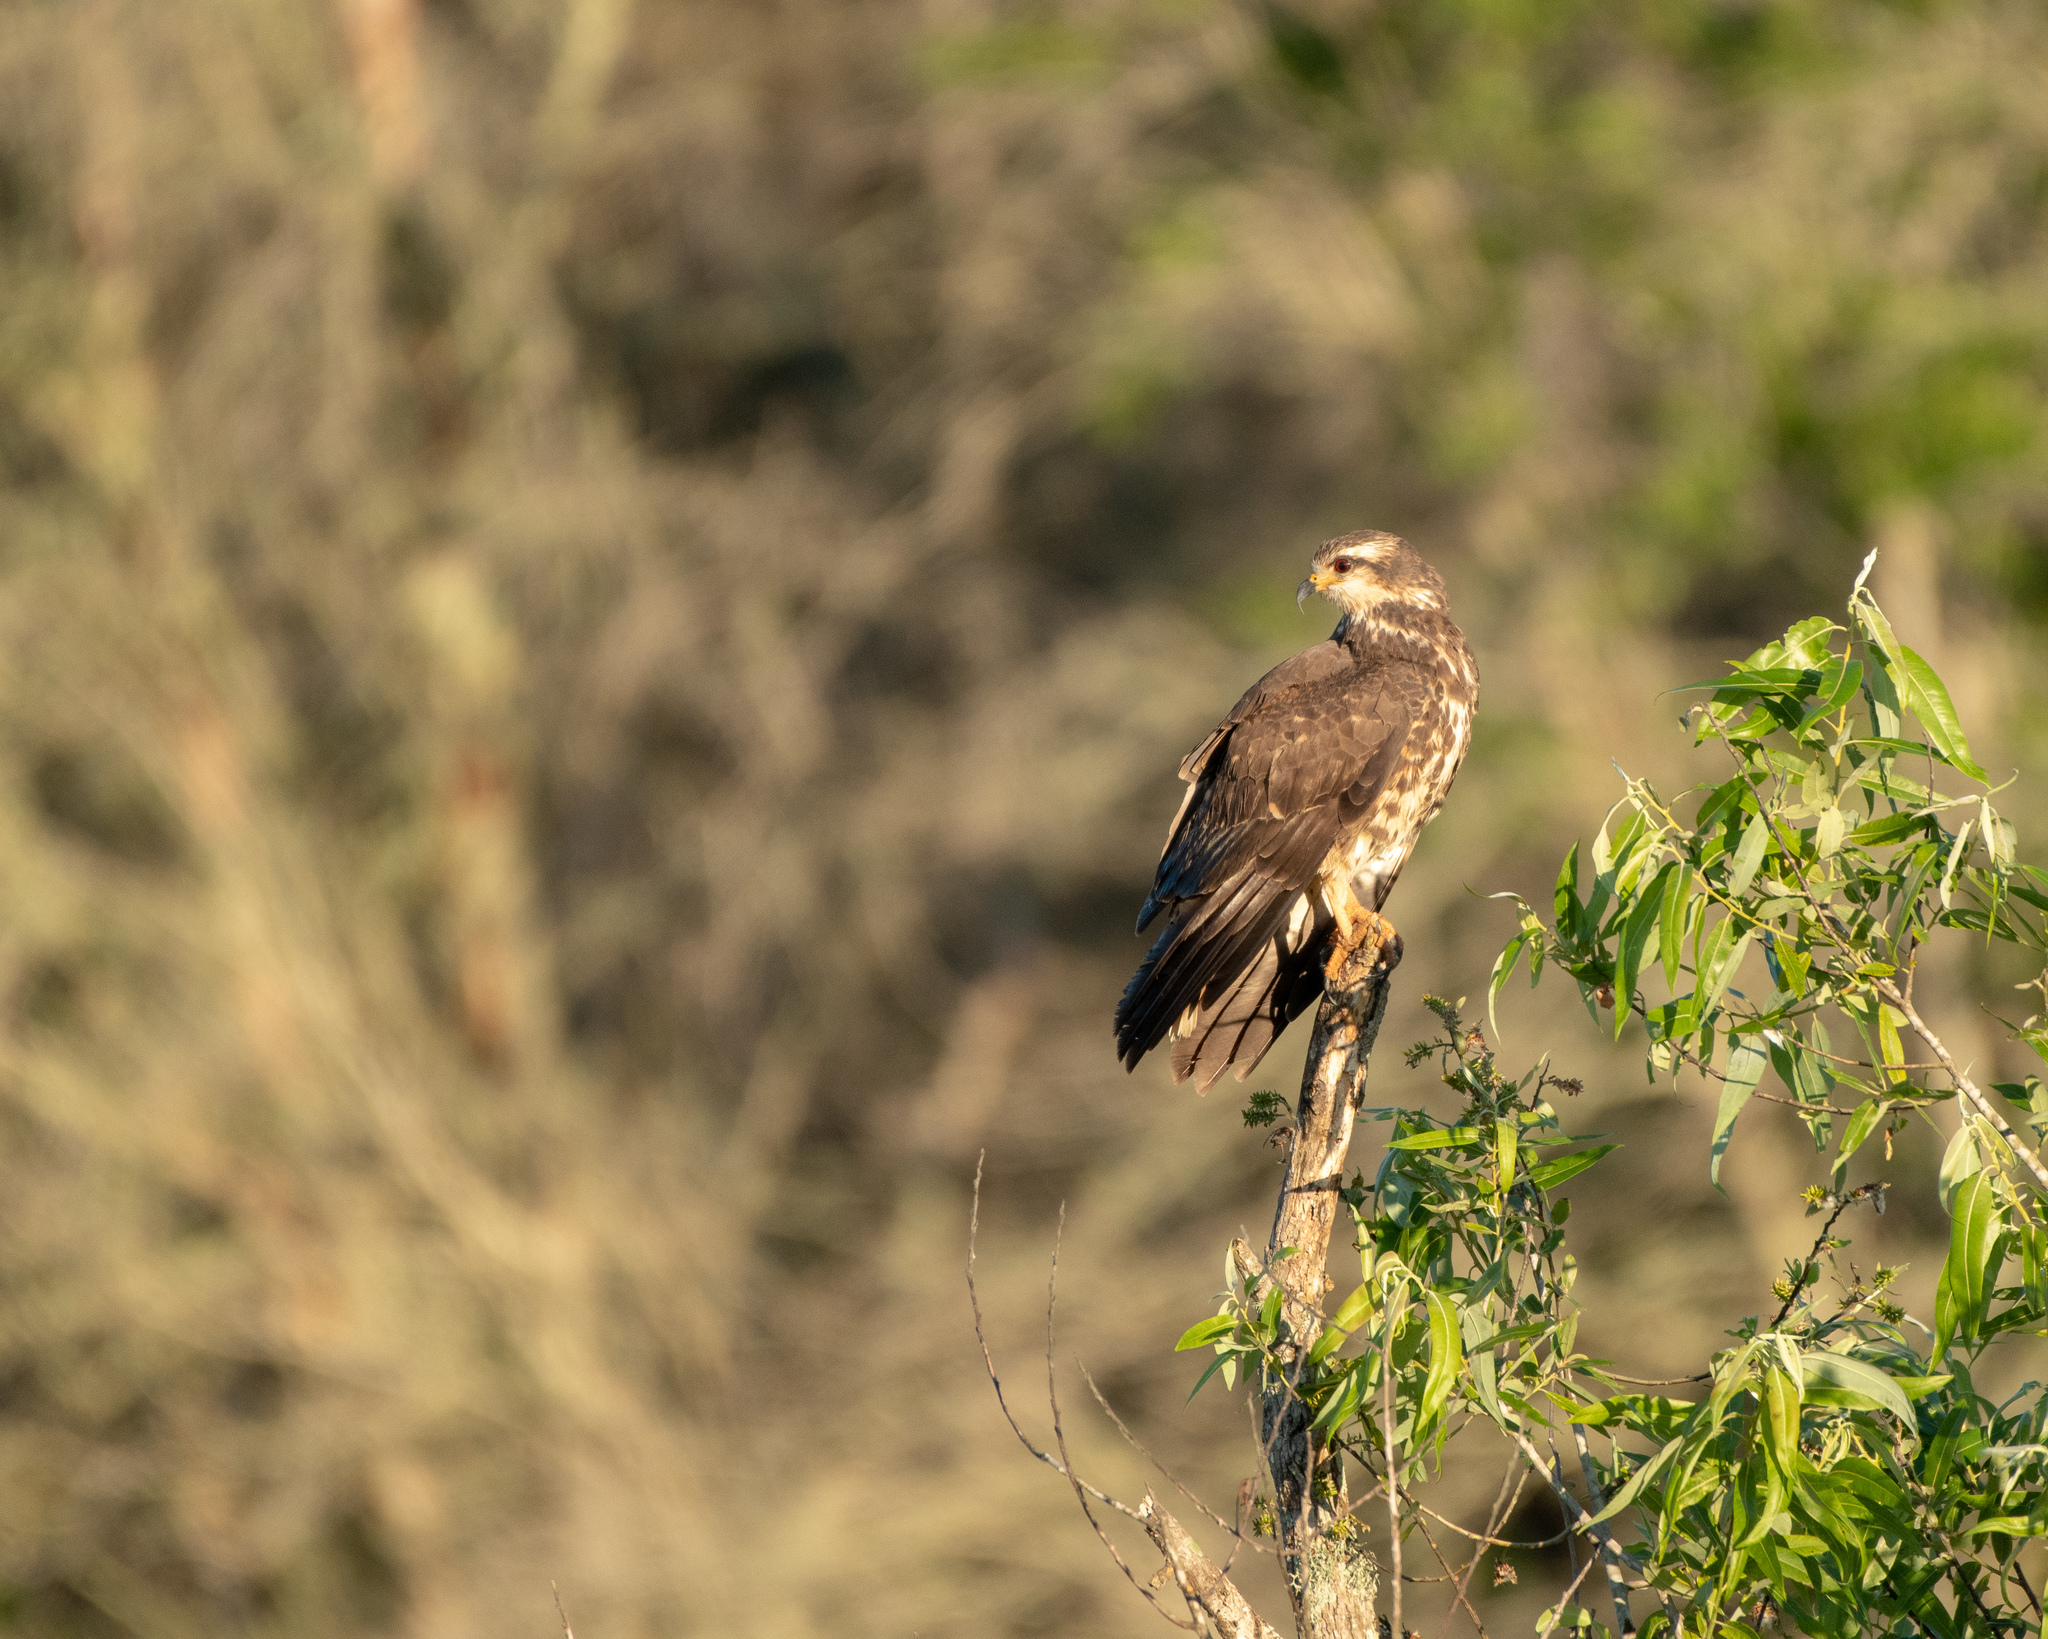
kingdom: Animalia
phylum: Chordata
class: Aves
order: Accipitriformes
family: Accipitridae
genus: Rostrhamus
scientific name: Rostrhamus sociabilis
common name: Snail kite
